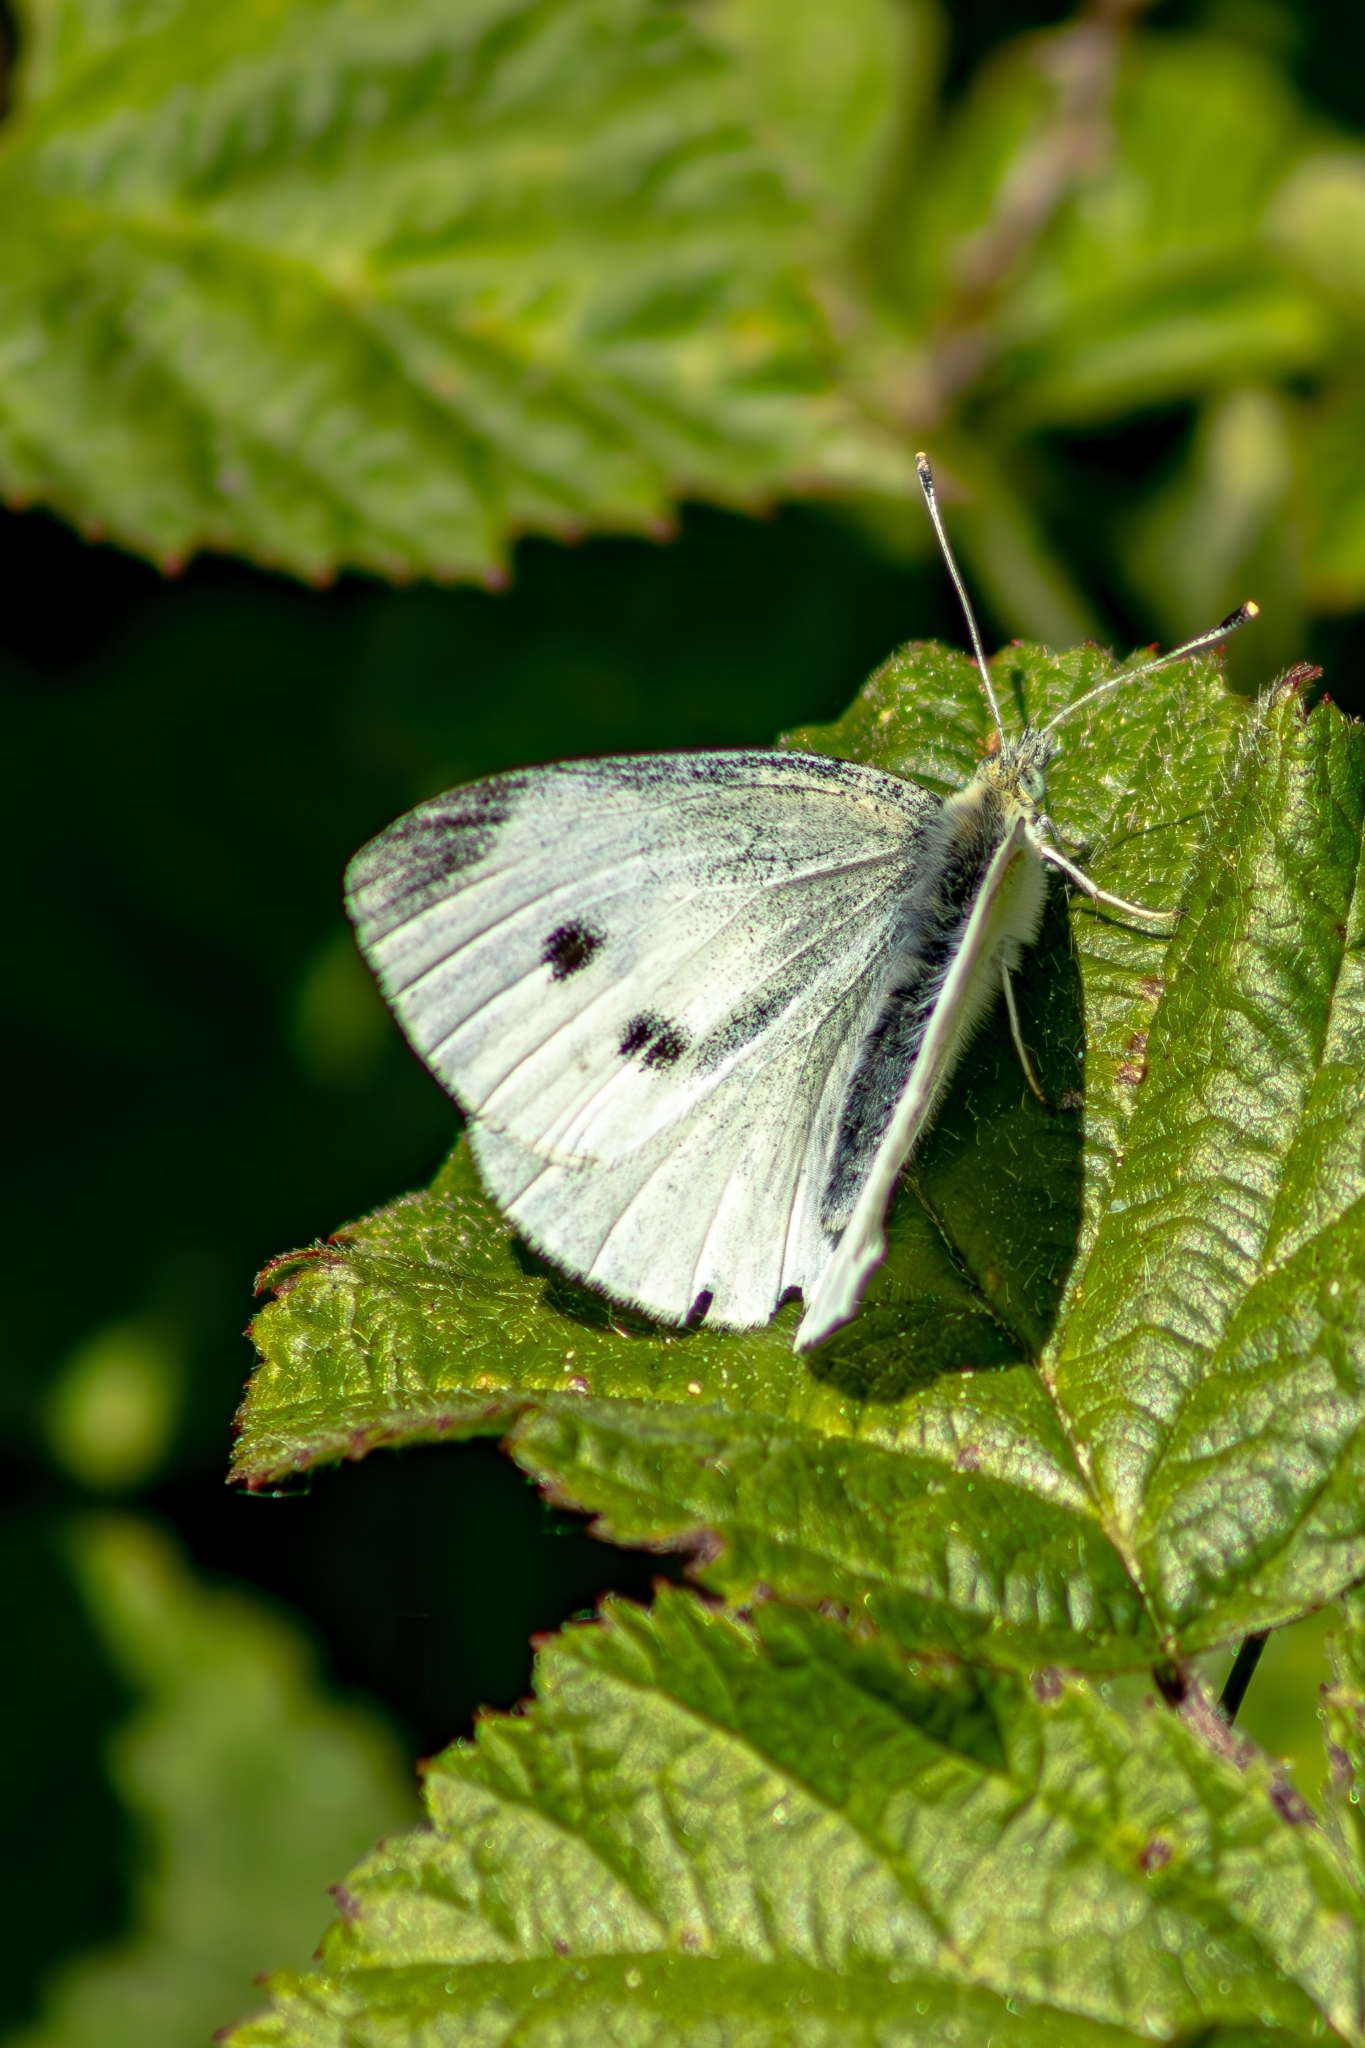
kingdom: Animalia
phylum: Arthropoda
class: Insecta
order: Lepidoptera
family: Pieridae
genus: Pieris
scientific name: Pieris rapae
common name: Small white
